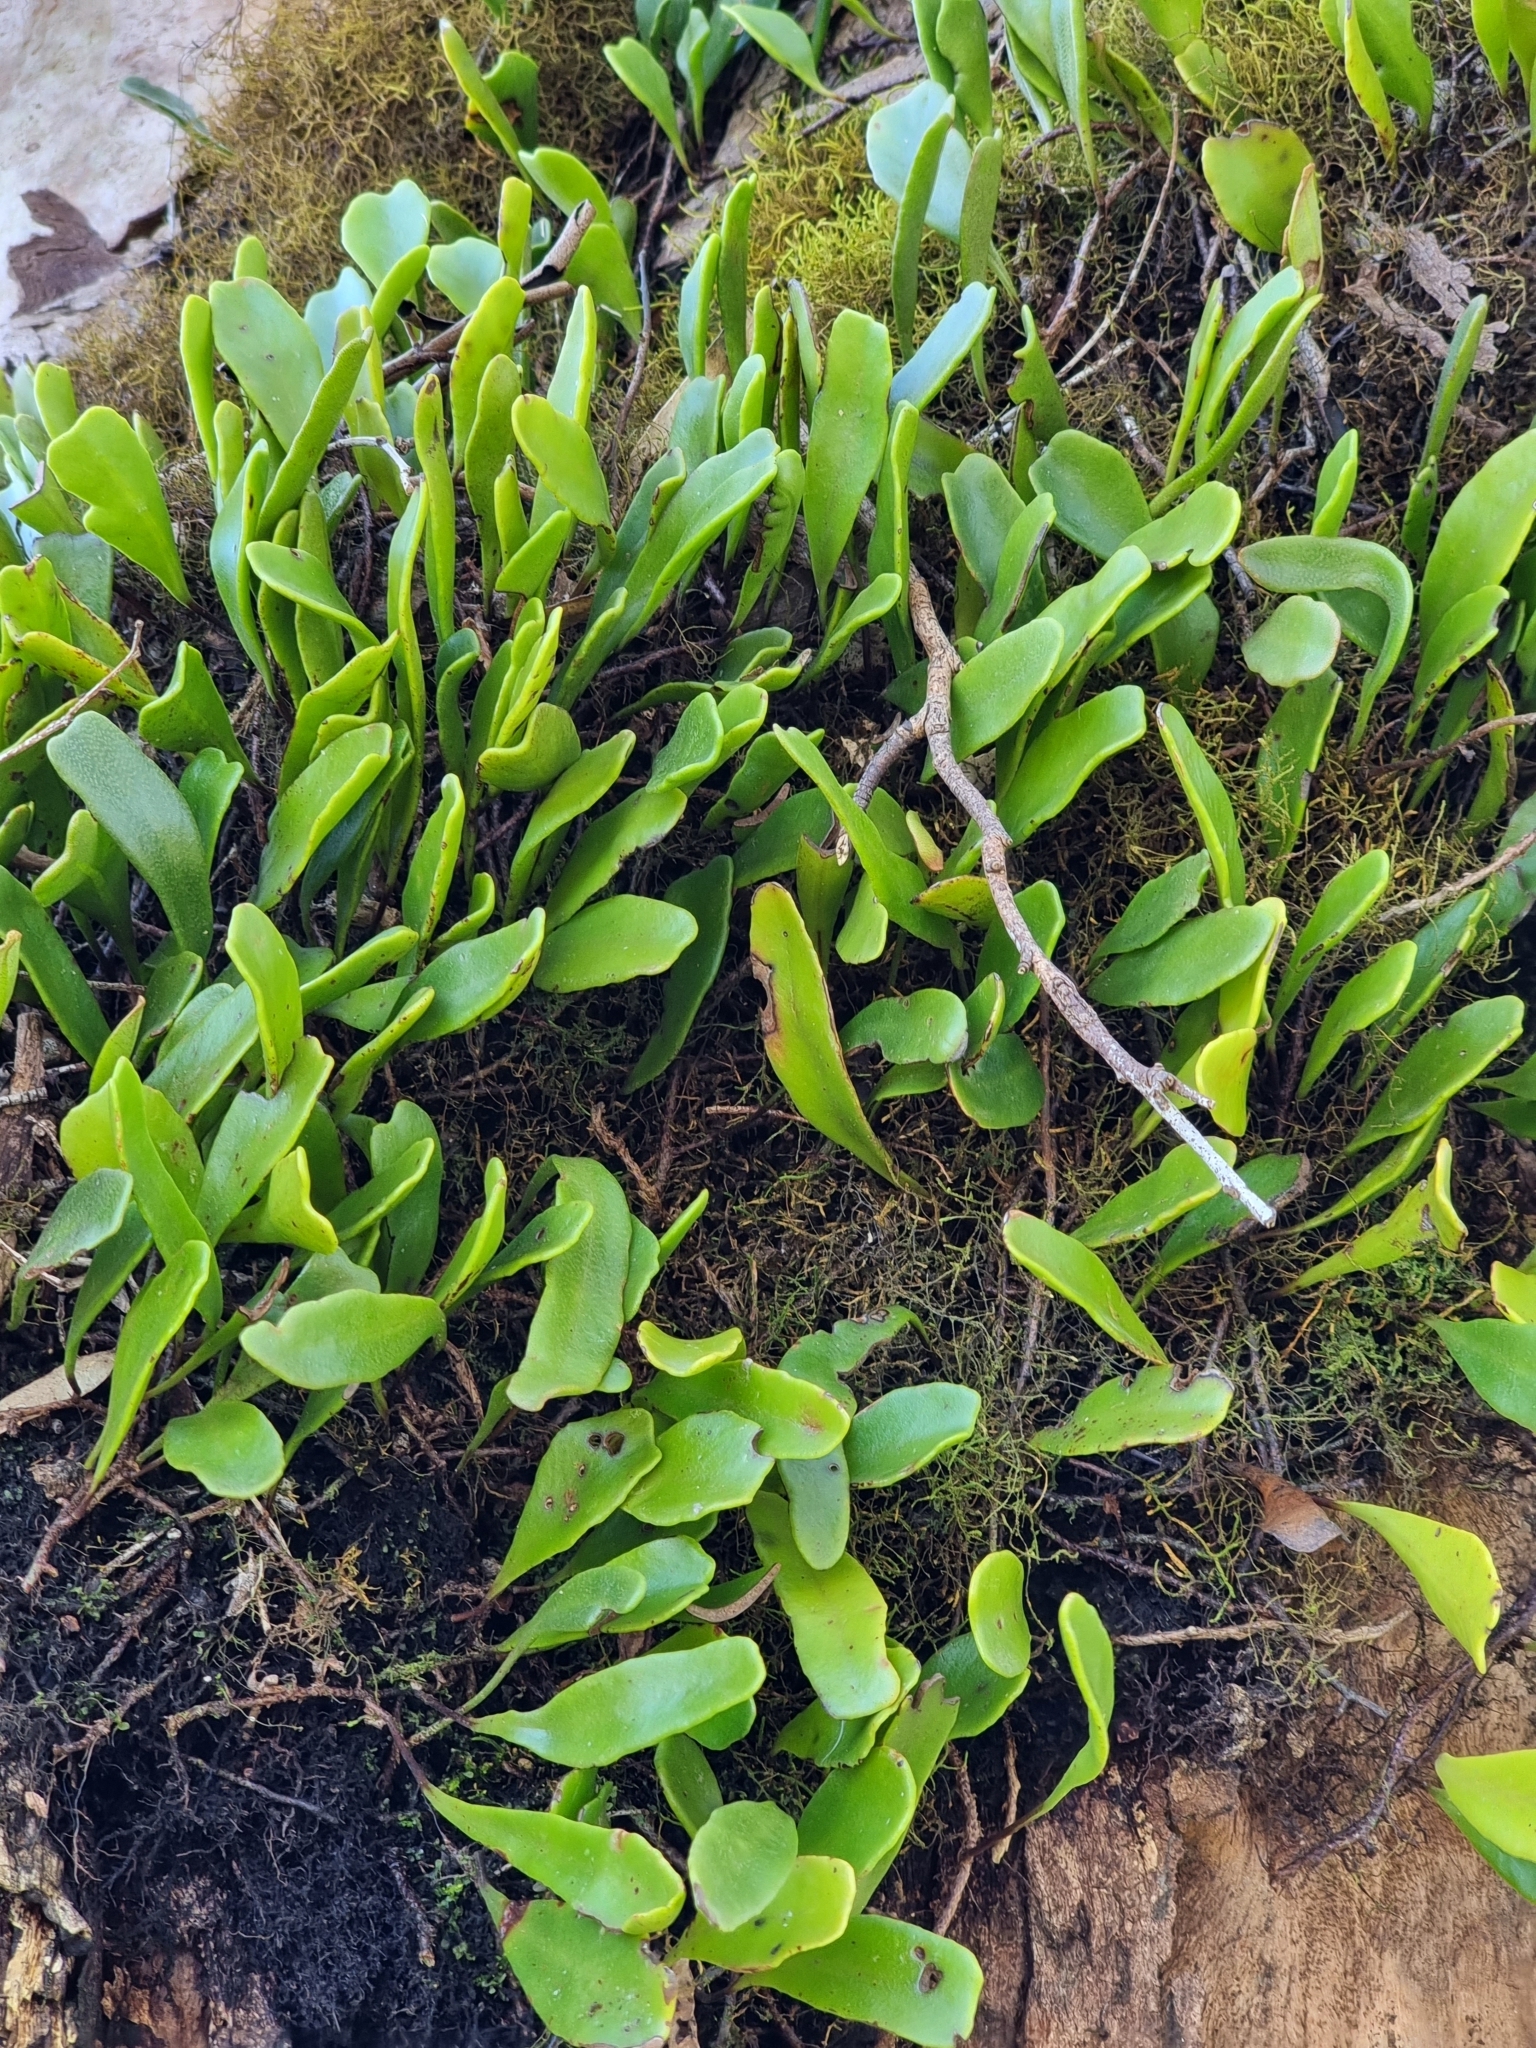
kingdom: Plantae
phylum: Tracheophyta
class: Polypodiopsida
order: Polypodiales
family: Polypodiaceae
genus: Pyrrosia
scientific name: Pyrrosia confluens
